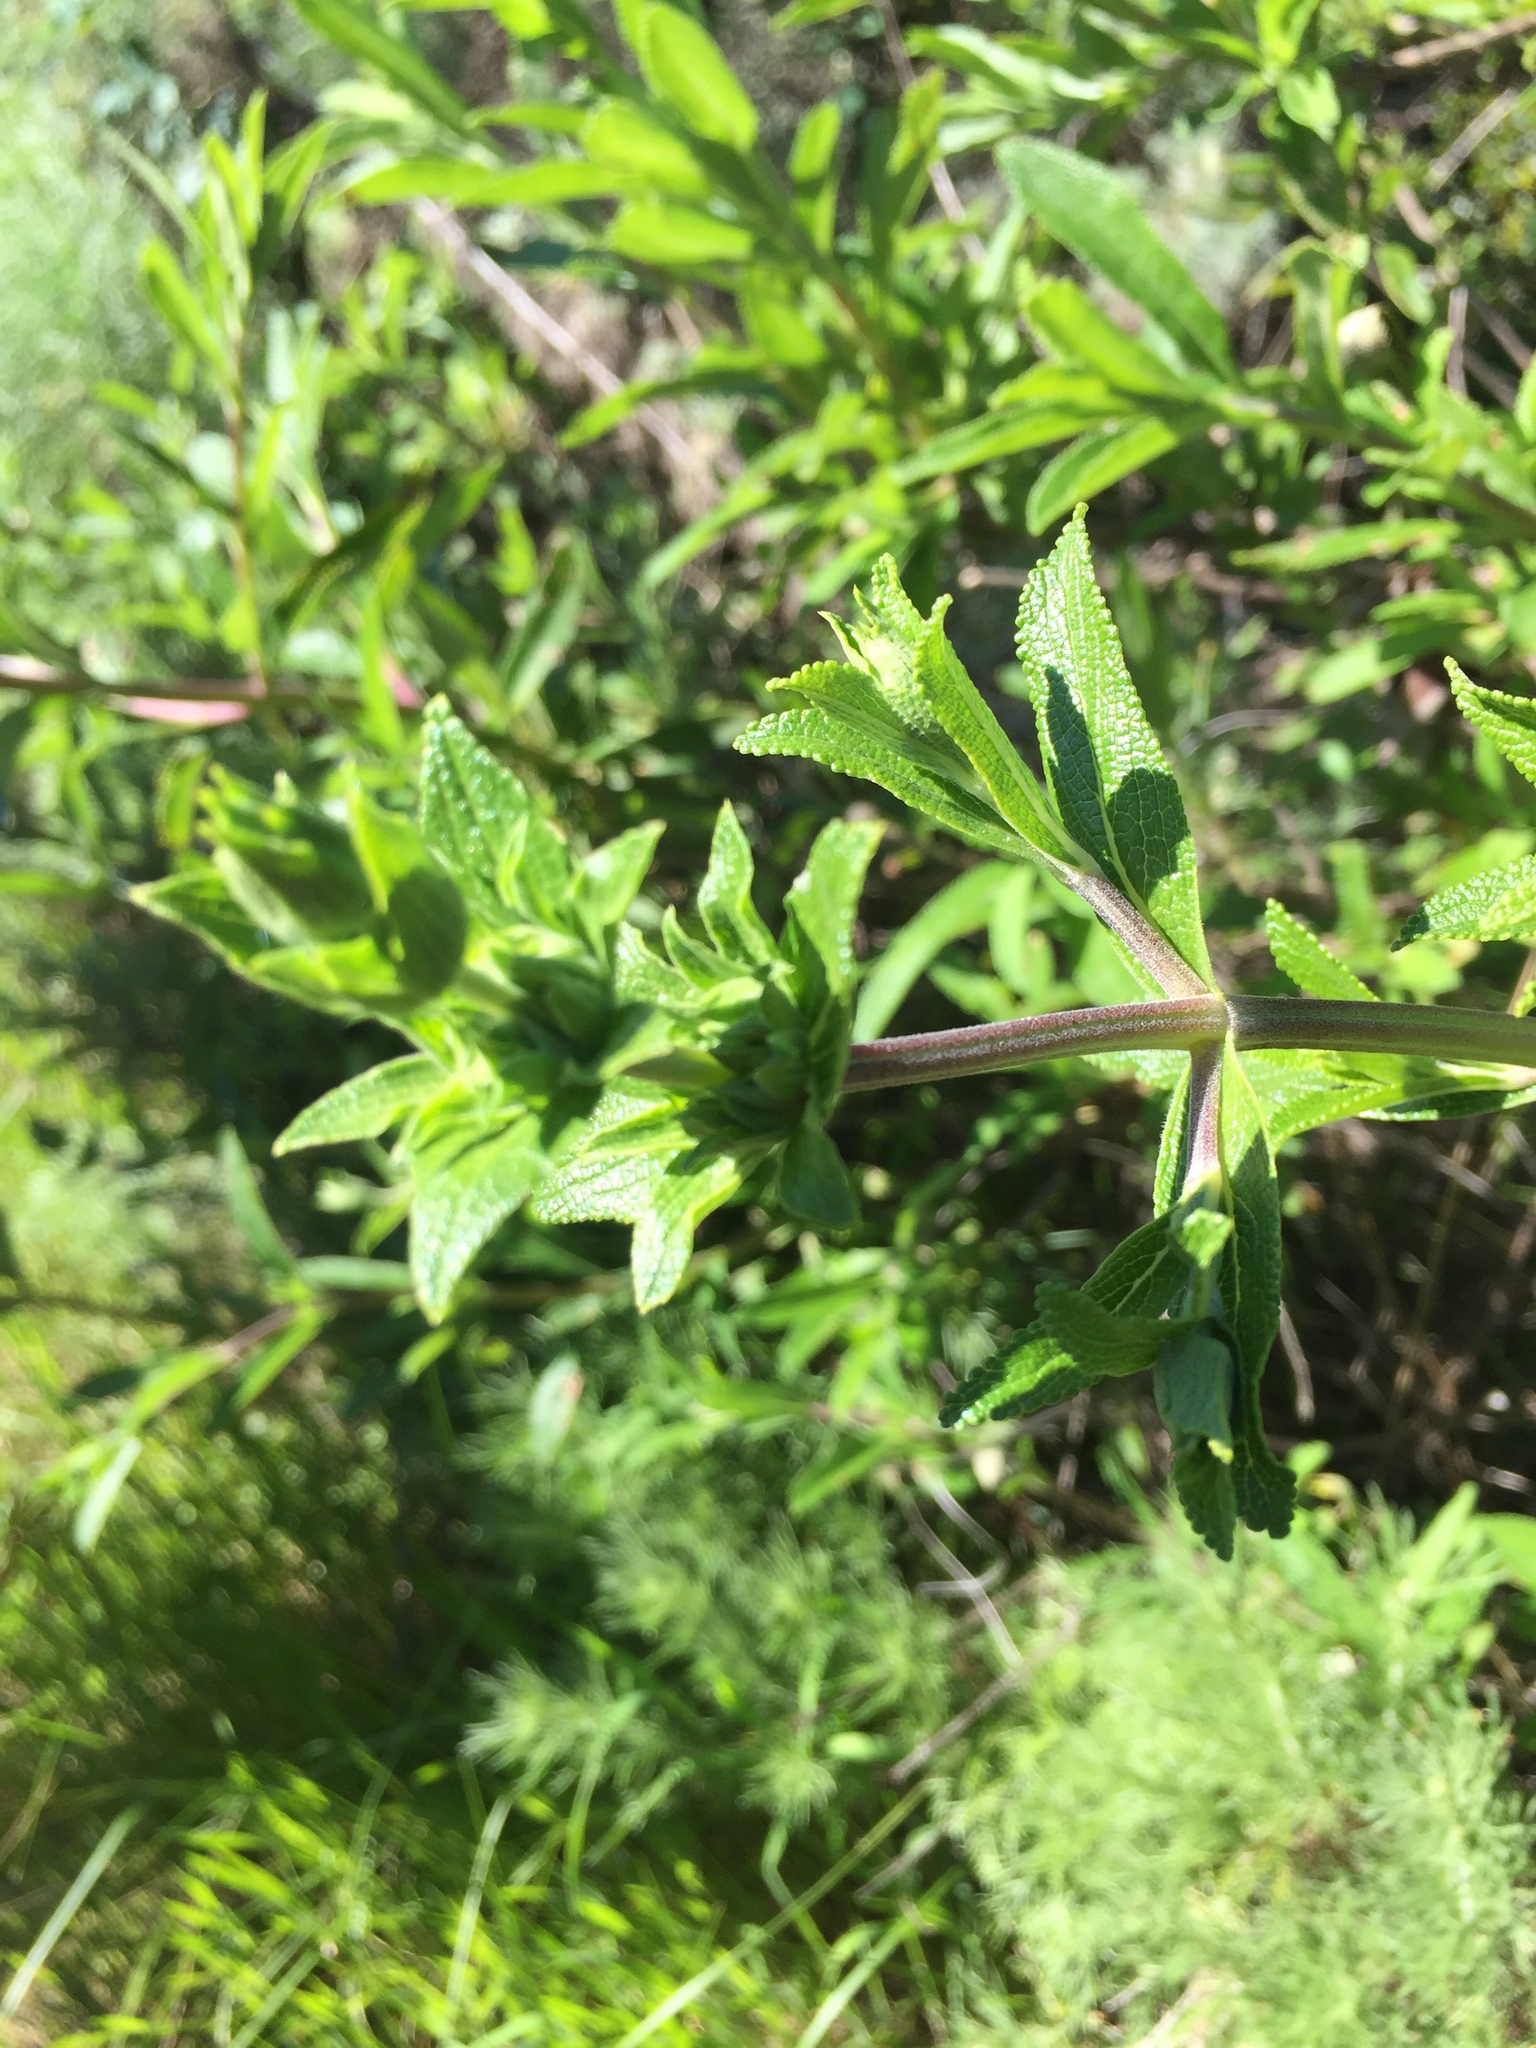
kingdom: Plantae
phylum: Tracheophyta
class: Magnoliopsida
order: Lamiales
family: Lamiaceae
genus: Salvia
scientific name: Salvia mellifera
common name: Black sage
